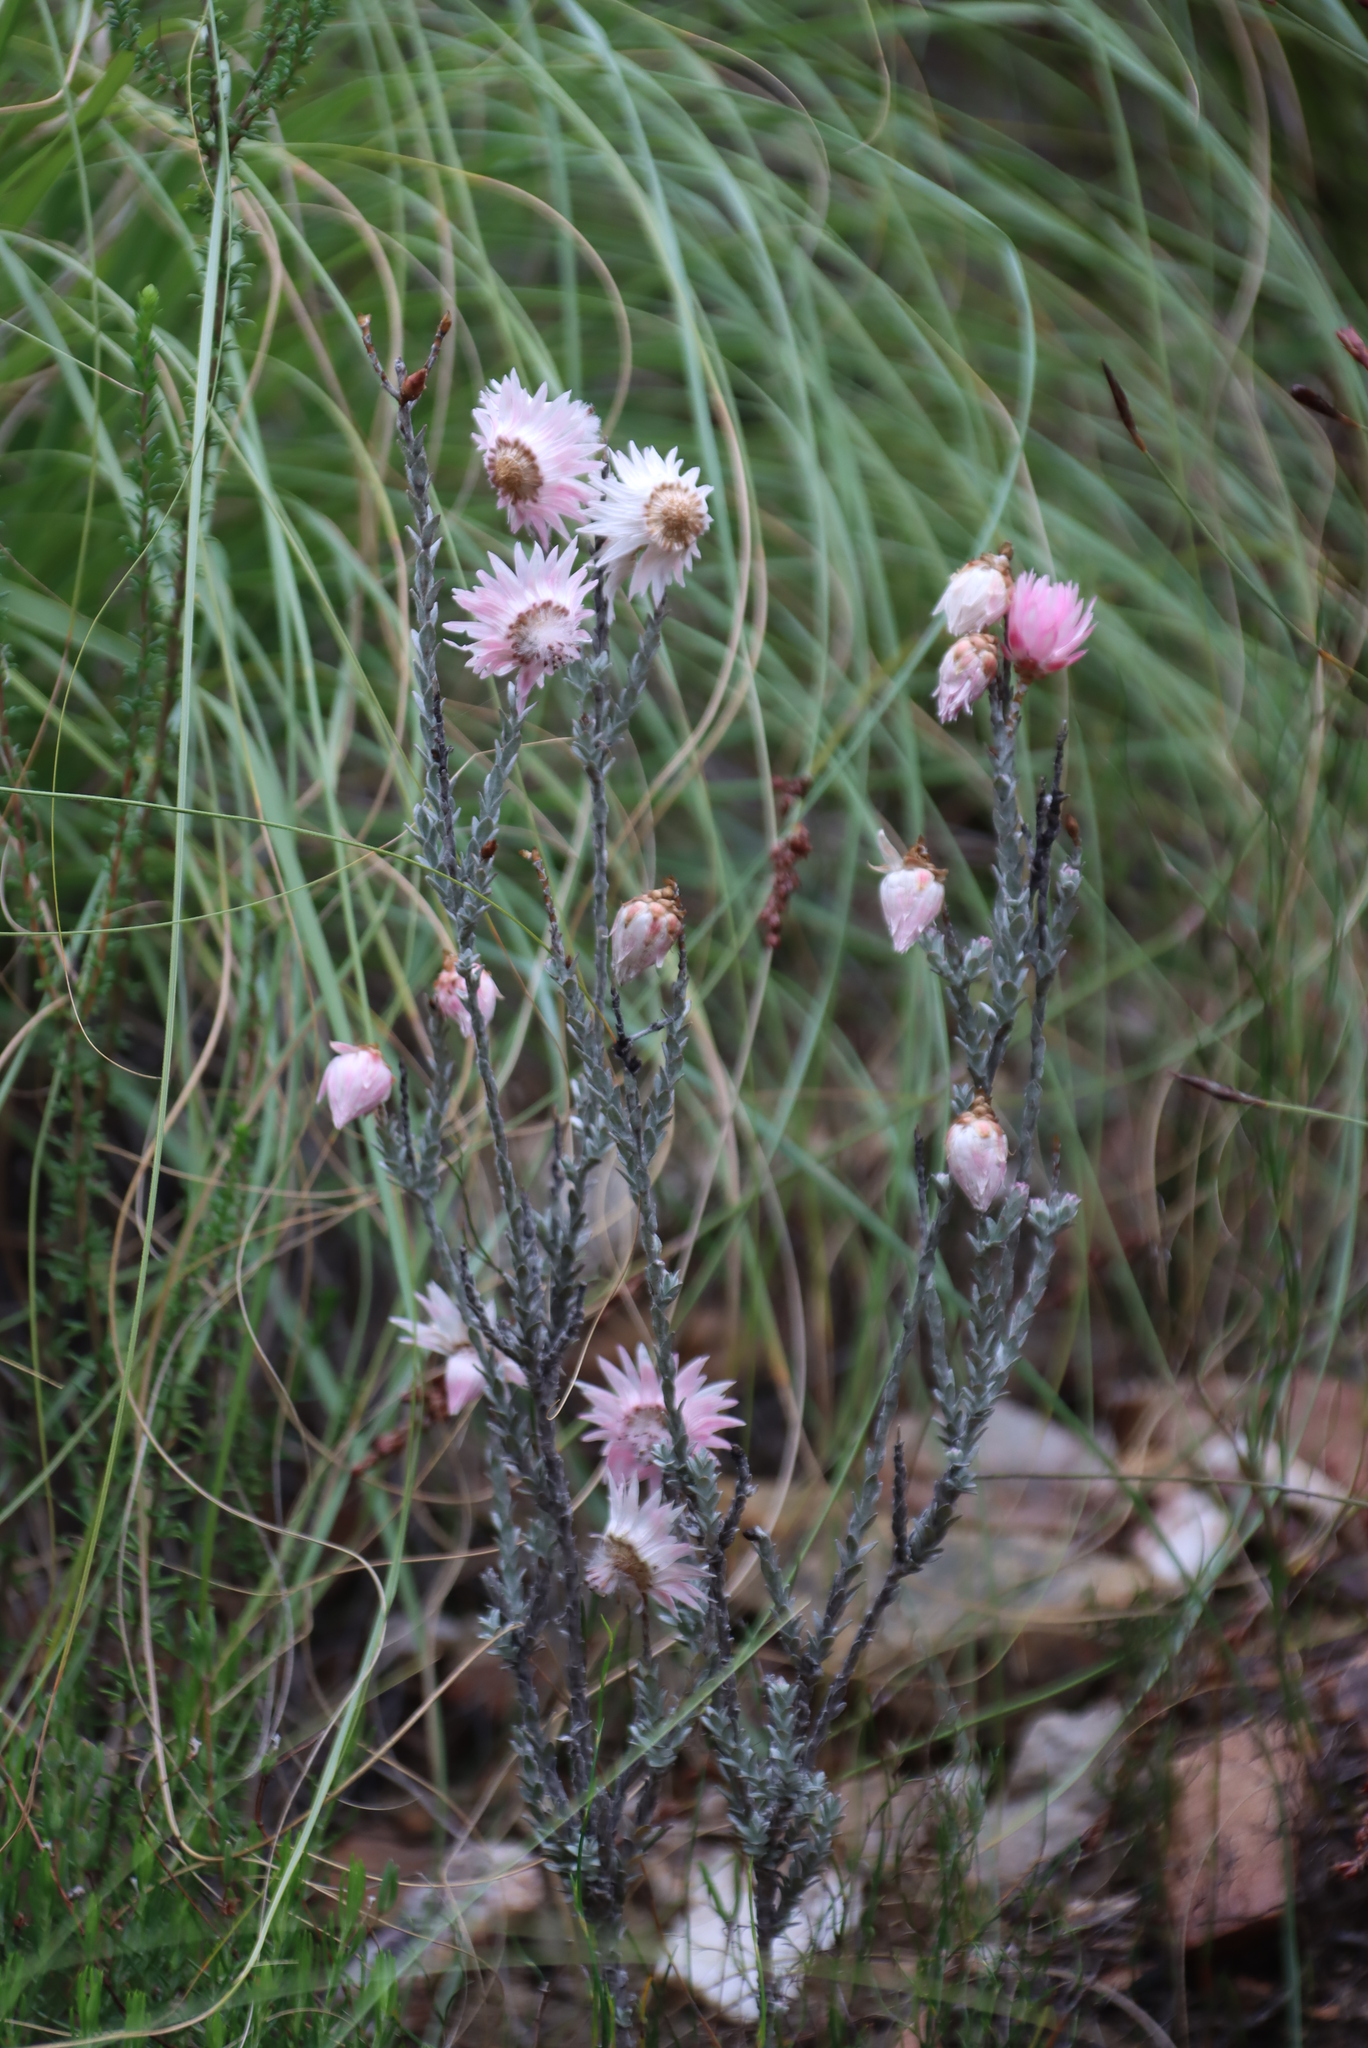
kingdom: Plantae
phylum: Tracheophyta
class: Magnoliopsida
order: Asterales
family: Asteraceae
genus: Syncarpha
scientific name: Syncarpha canescens
